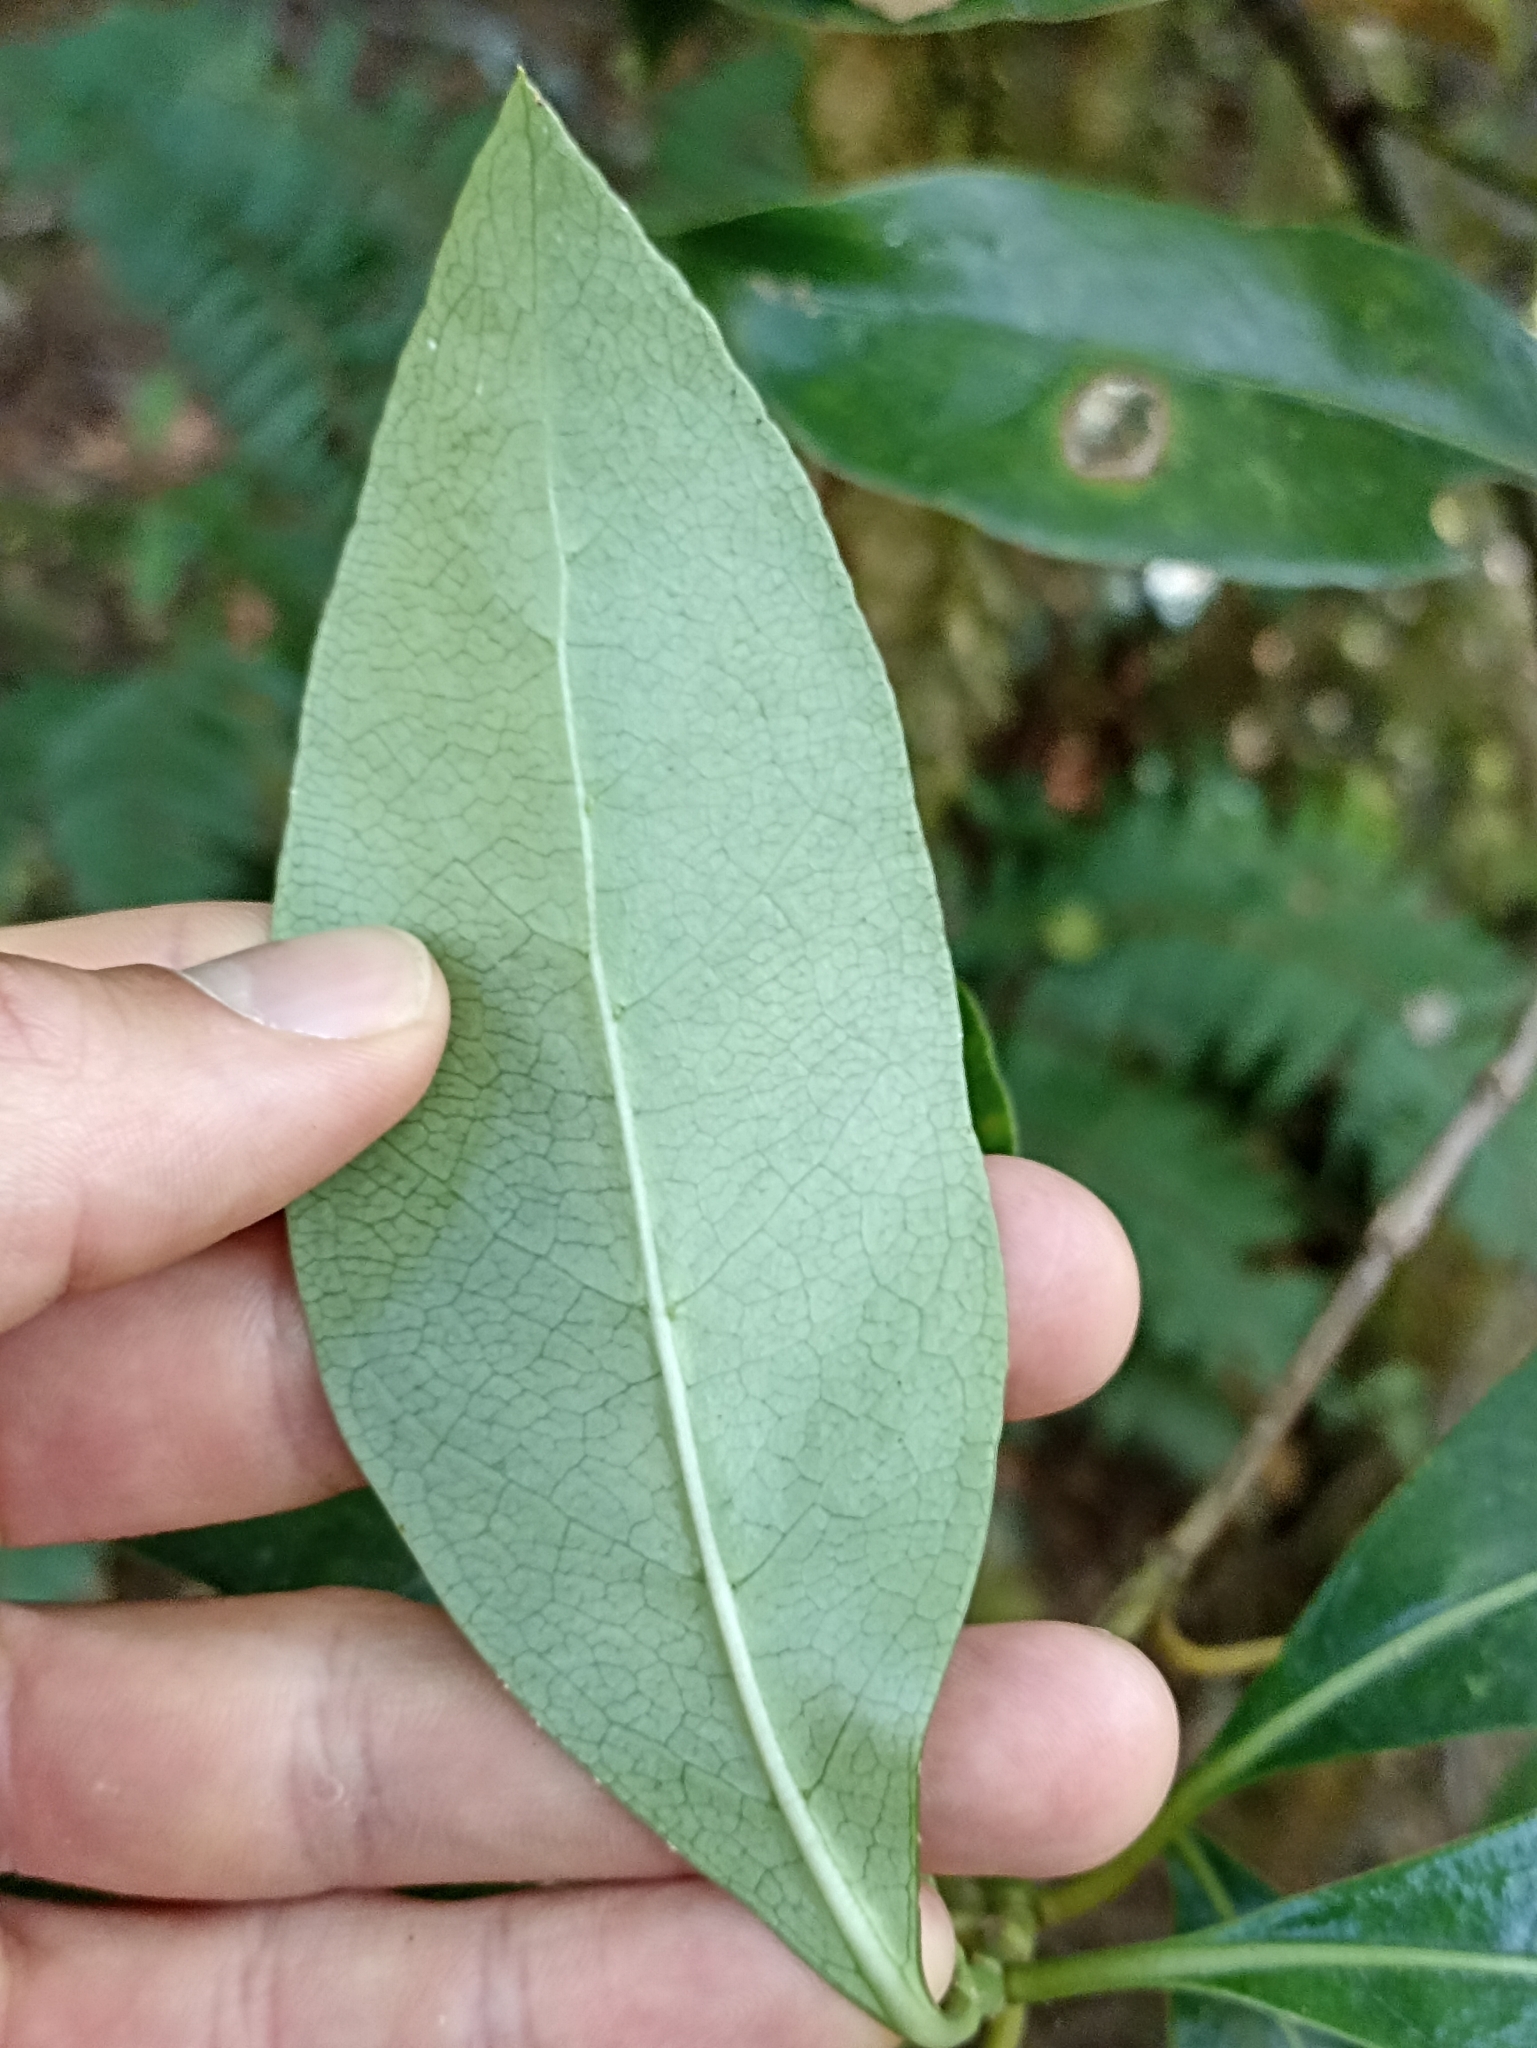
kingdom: Plantae
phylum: Tracheophyta
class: Magnoliopsida
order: Gentianales
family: Rubiaceae
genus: Coprosma
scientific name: Coprosma lucida
